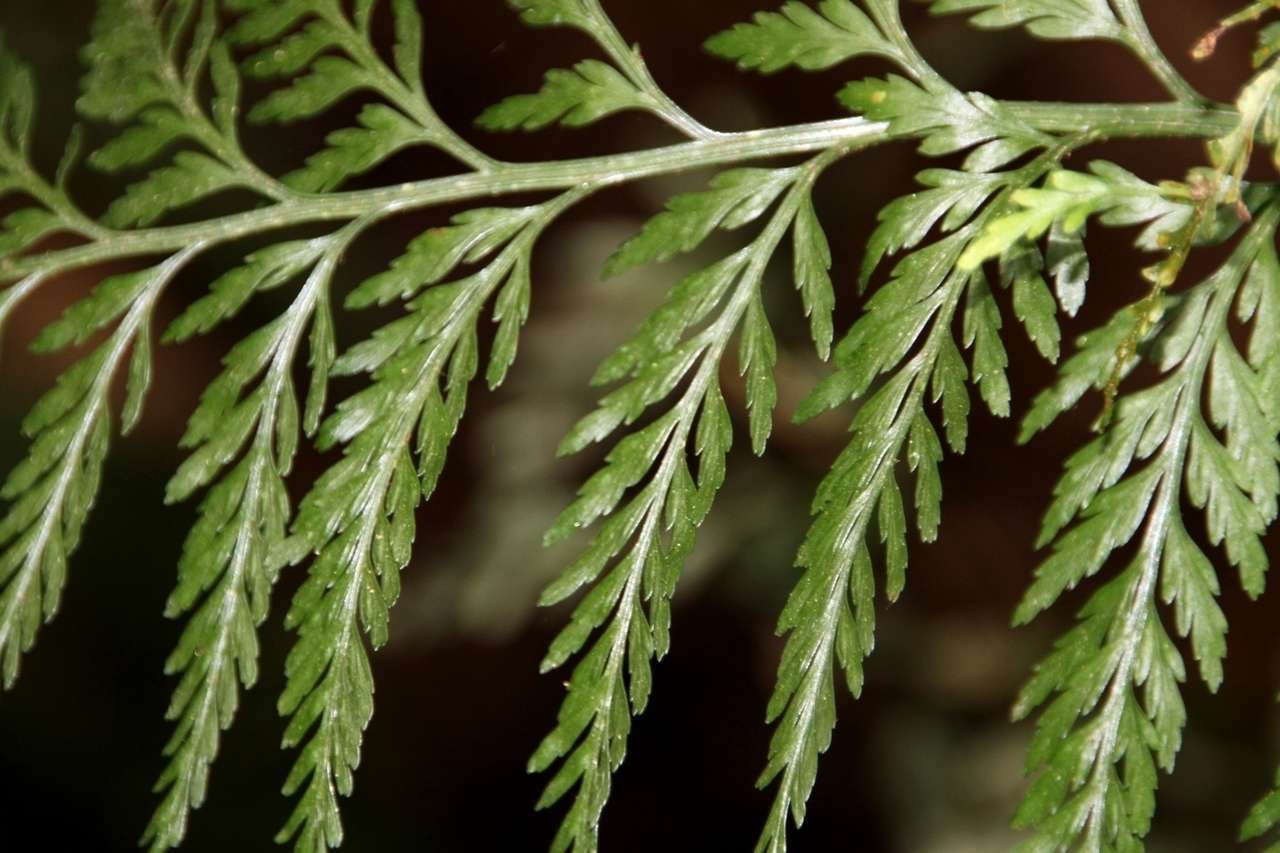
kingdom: Plantae
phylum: Tracheophyta
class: Polypodiopsida
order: Polypodiales
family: Aspleniaceae
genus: Asplenium
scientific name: Asplenium
